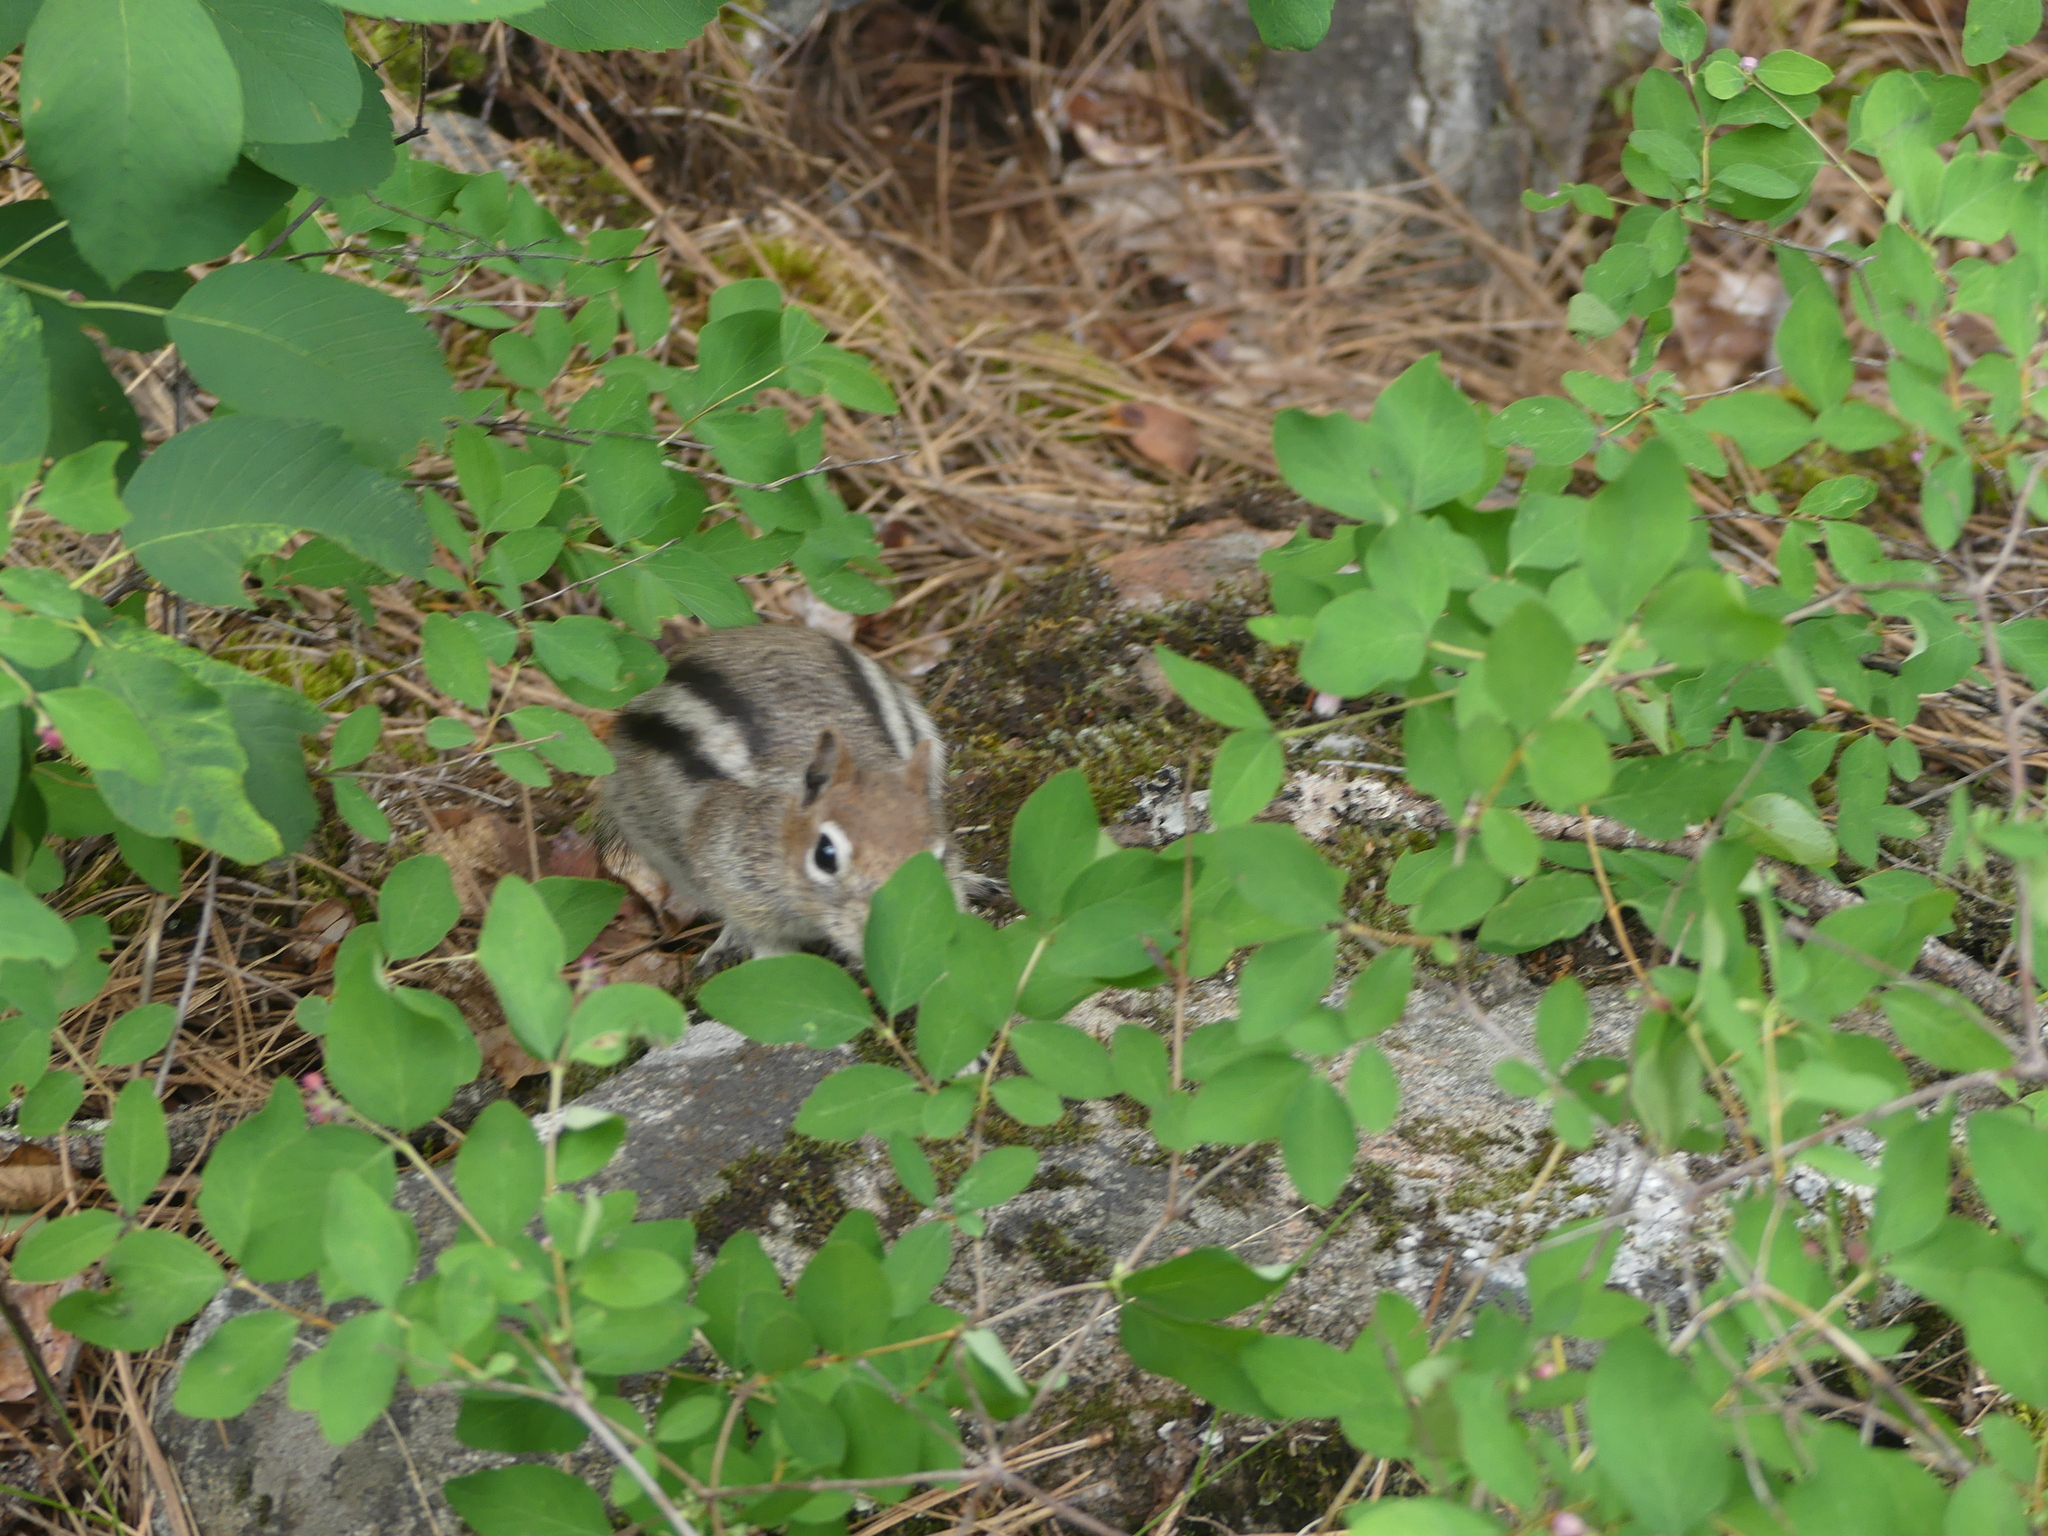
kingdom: Animalia
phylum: Chordata
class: Mammalia
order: Rodentia
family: Sciuridae
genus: Callospermophilus
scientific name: Callospermophilus lateralis
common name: Golden-mantled ground squirrel
